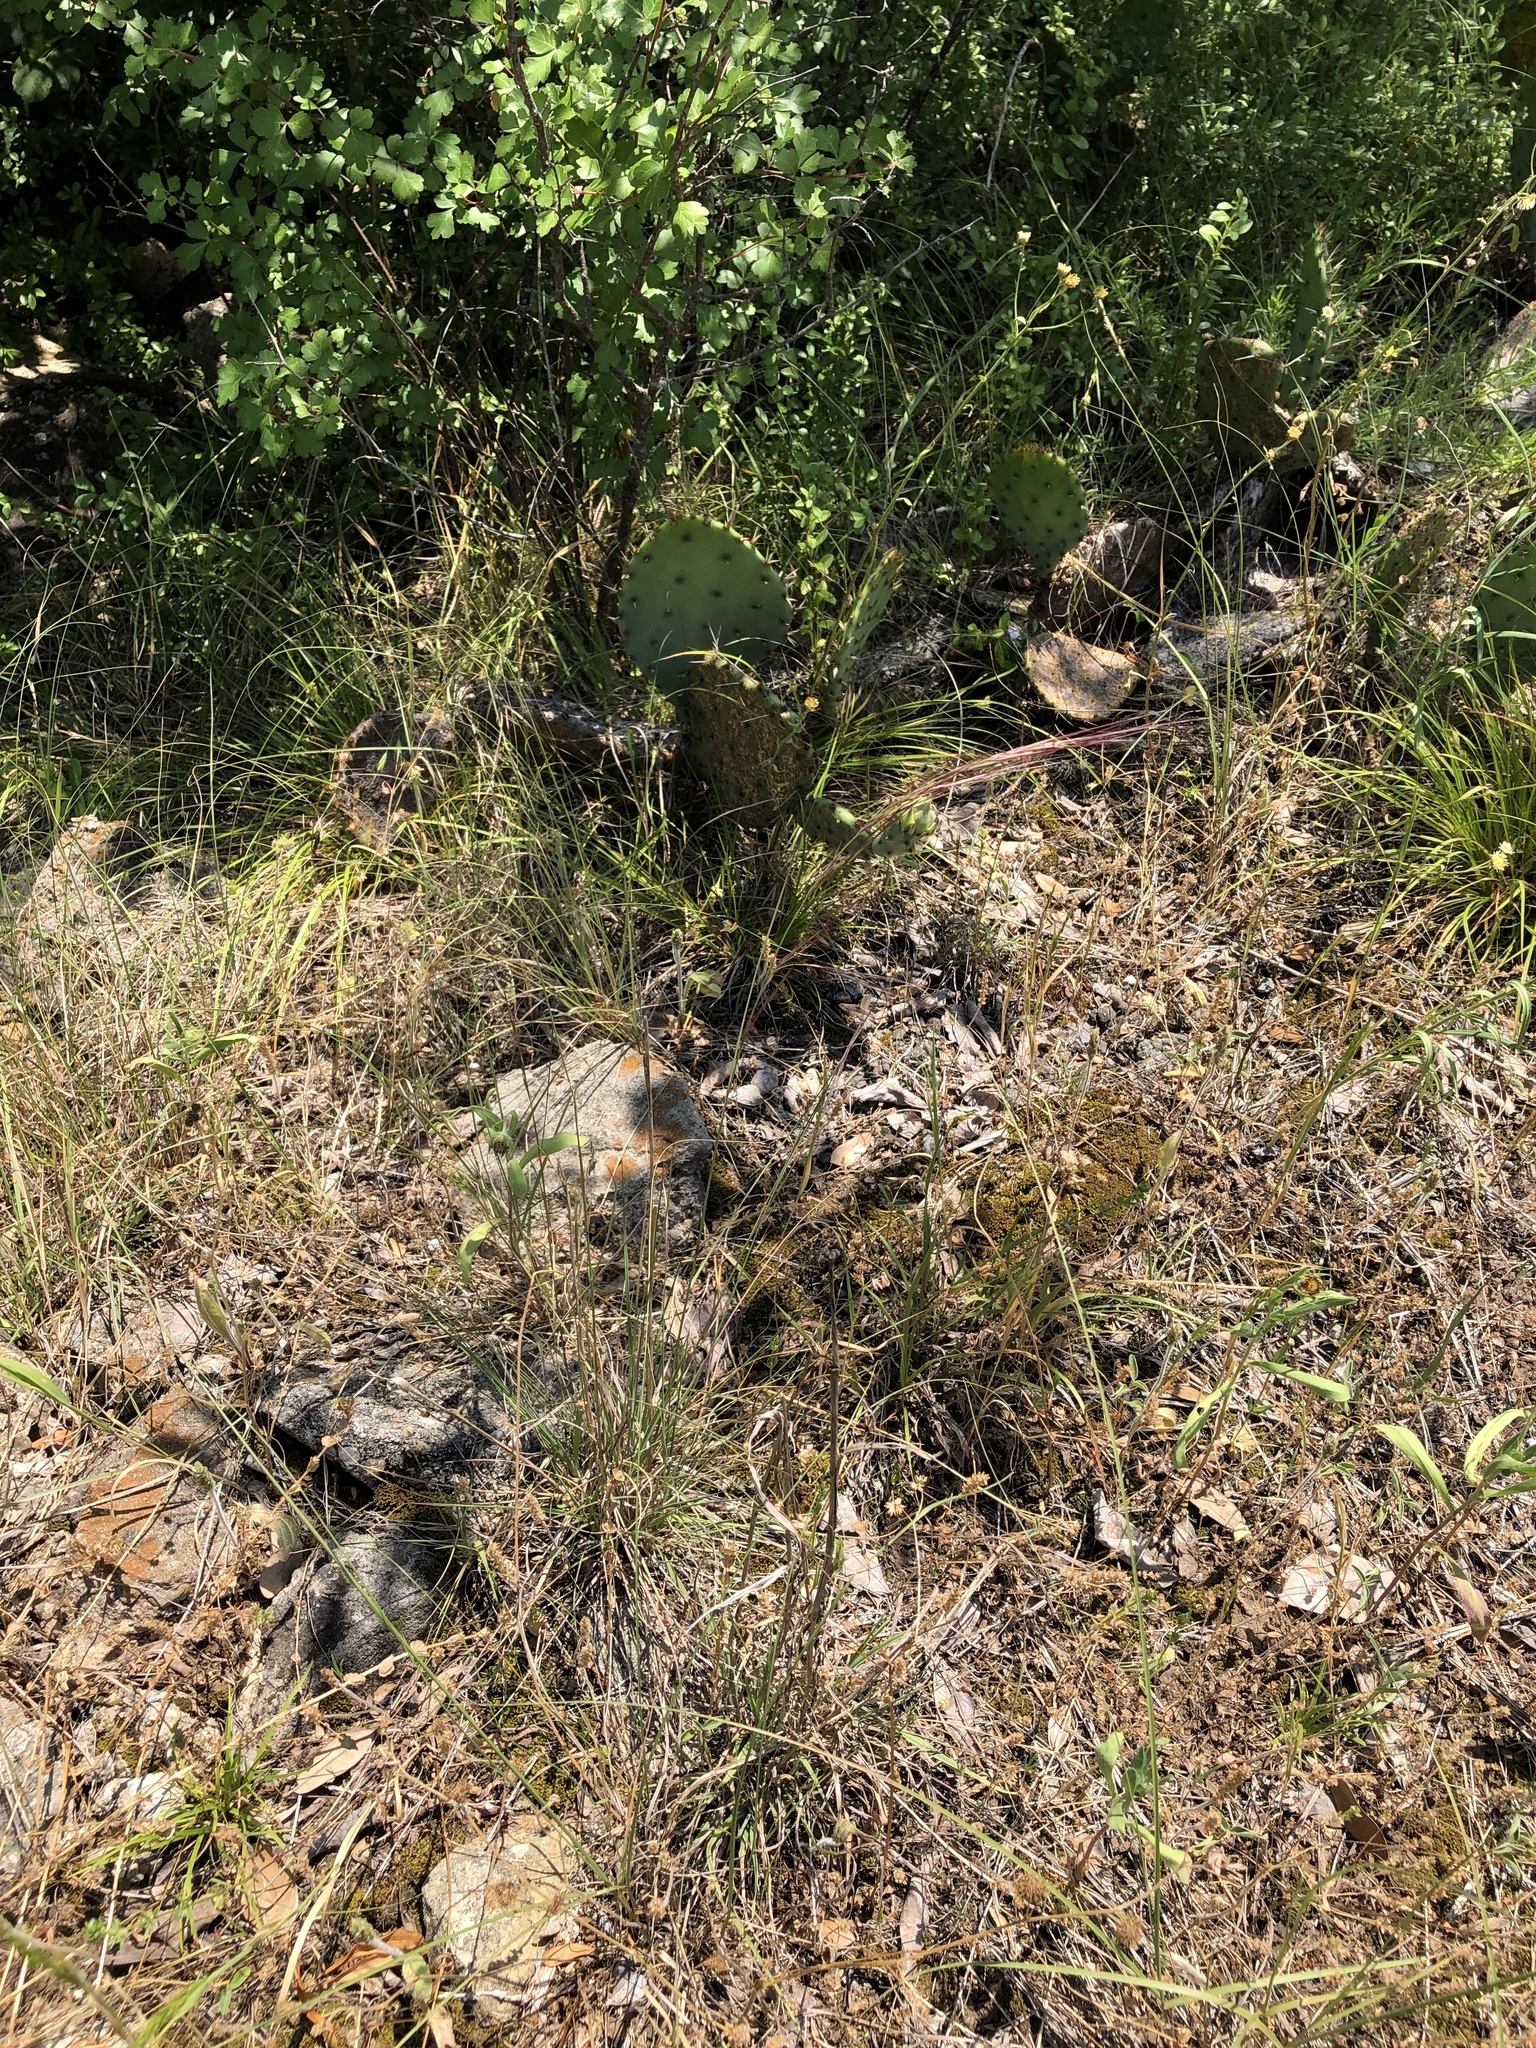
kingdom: Plantae
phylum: Tracheophyta
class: Liliopsida
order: Poales
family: Poaceae
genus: Aristida
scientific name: Aristida purpurea
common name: Purple threeawn
